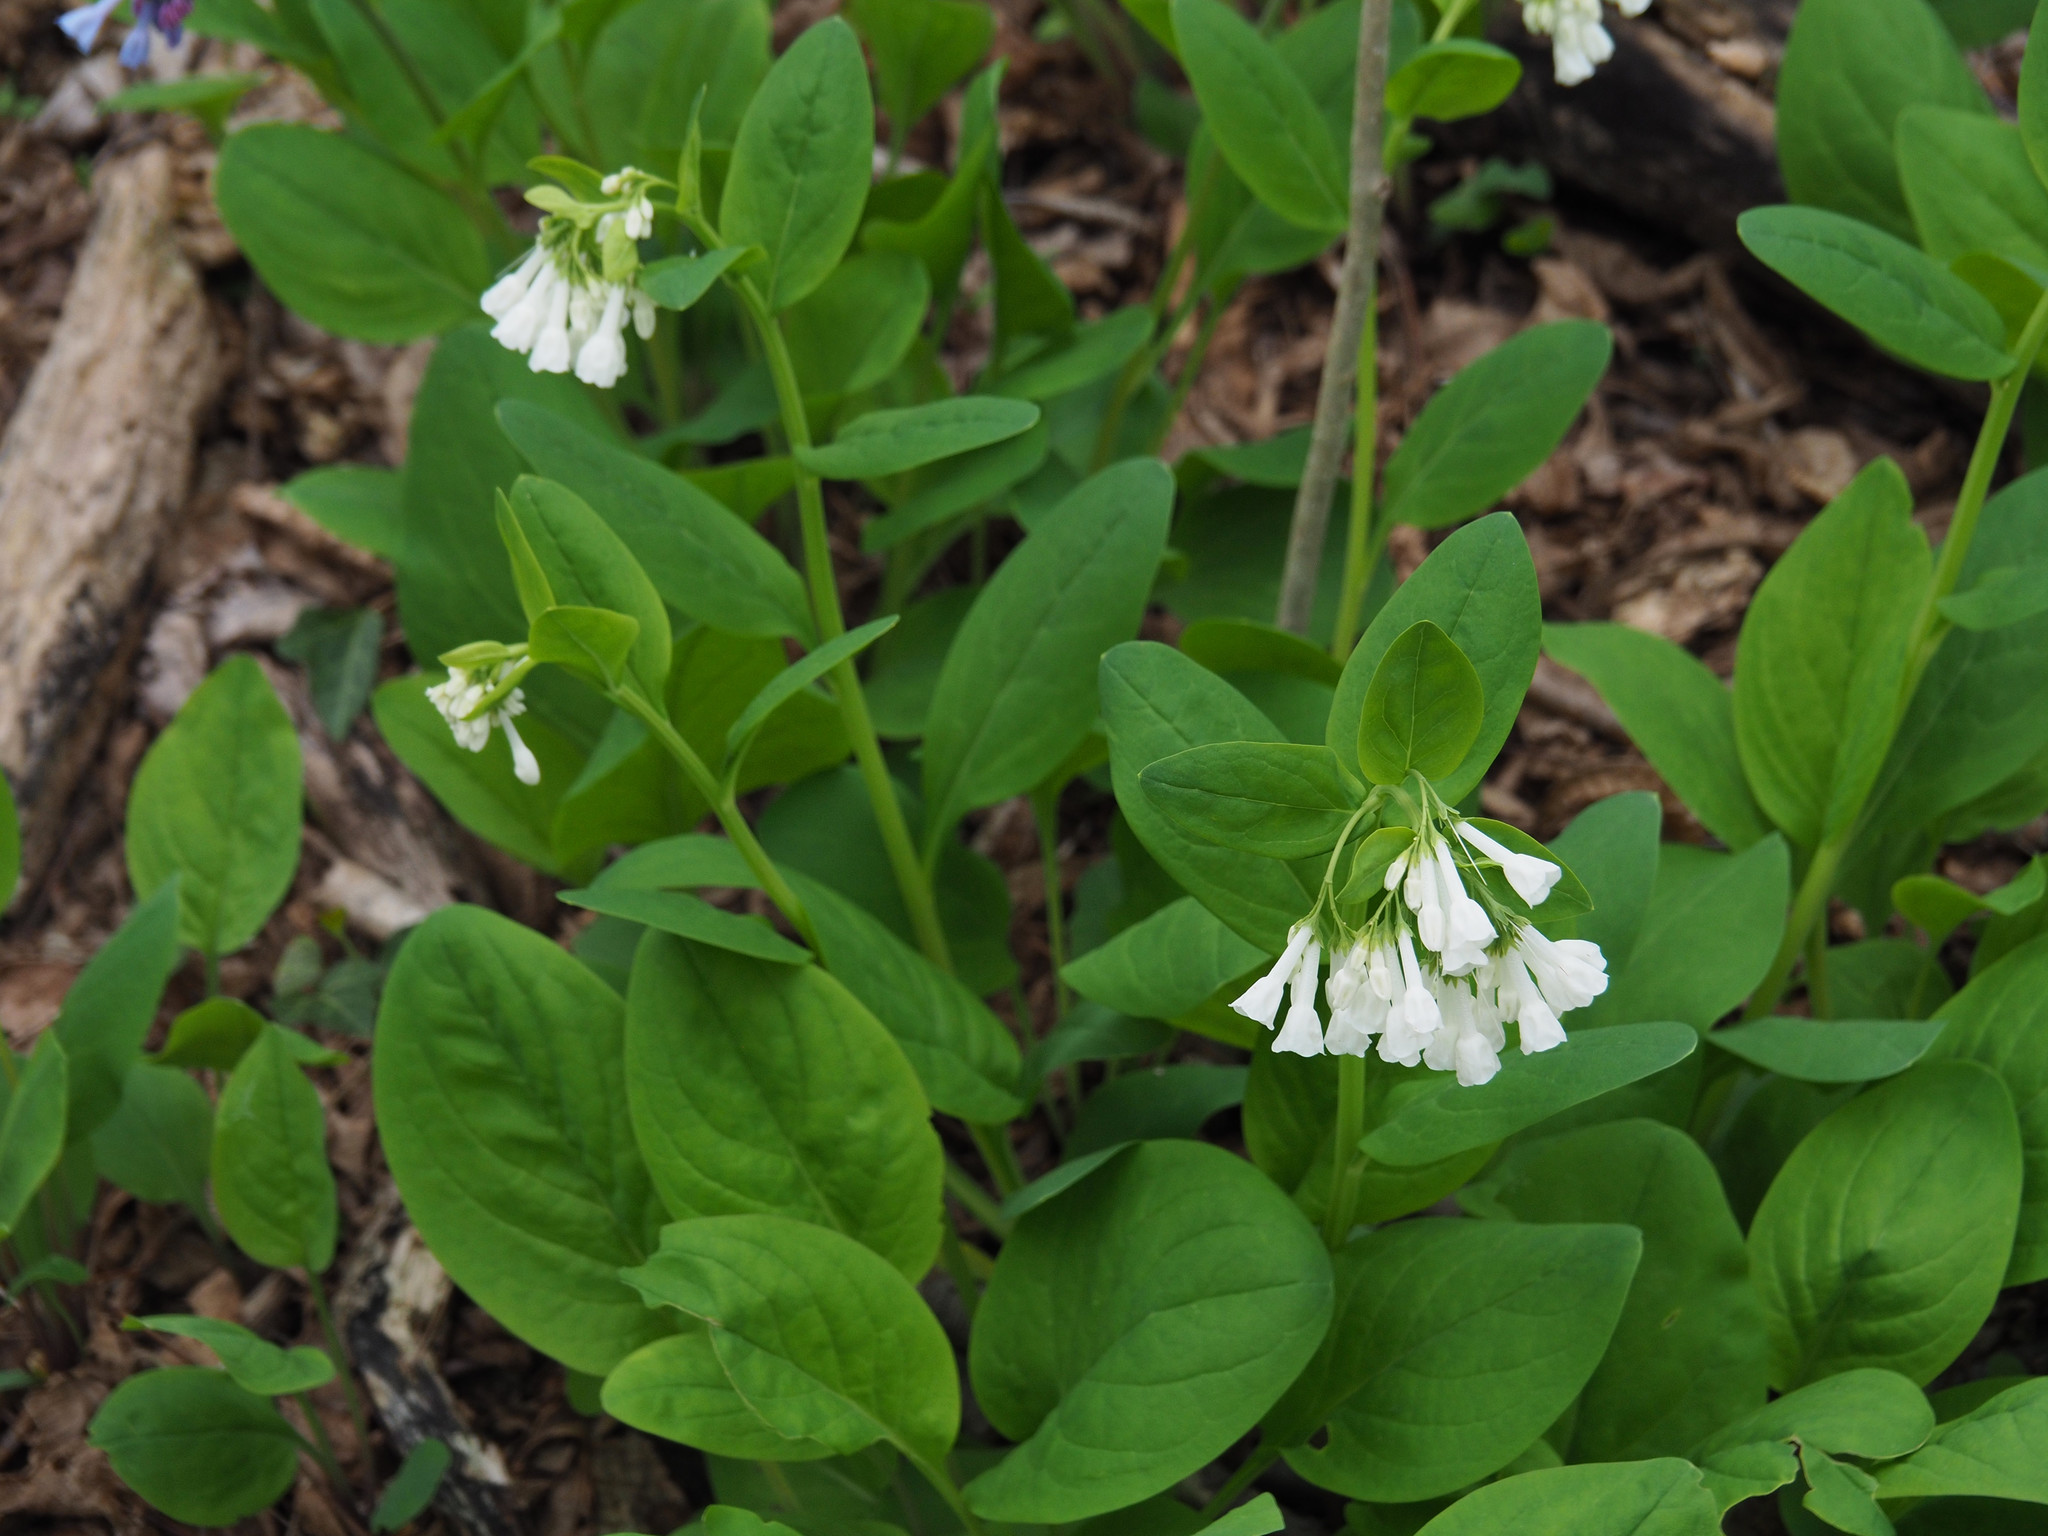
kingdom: Plantae
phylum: Tracheophyta
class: Magnoliopsida
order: Boraginales
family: Boraginaceae
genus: Mertensia
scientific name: Mertensia virginica
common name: Virginia bluebells
